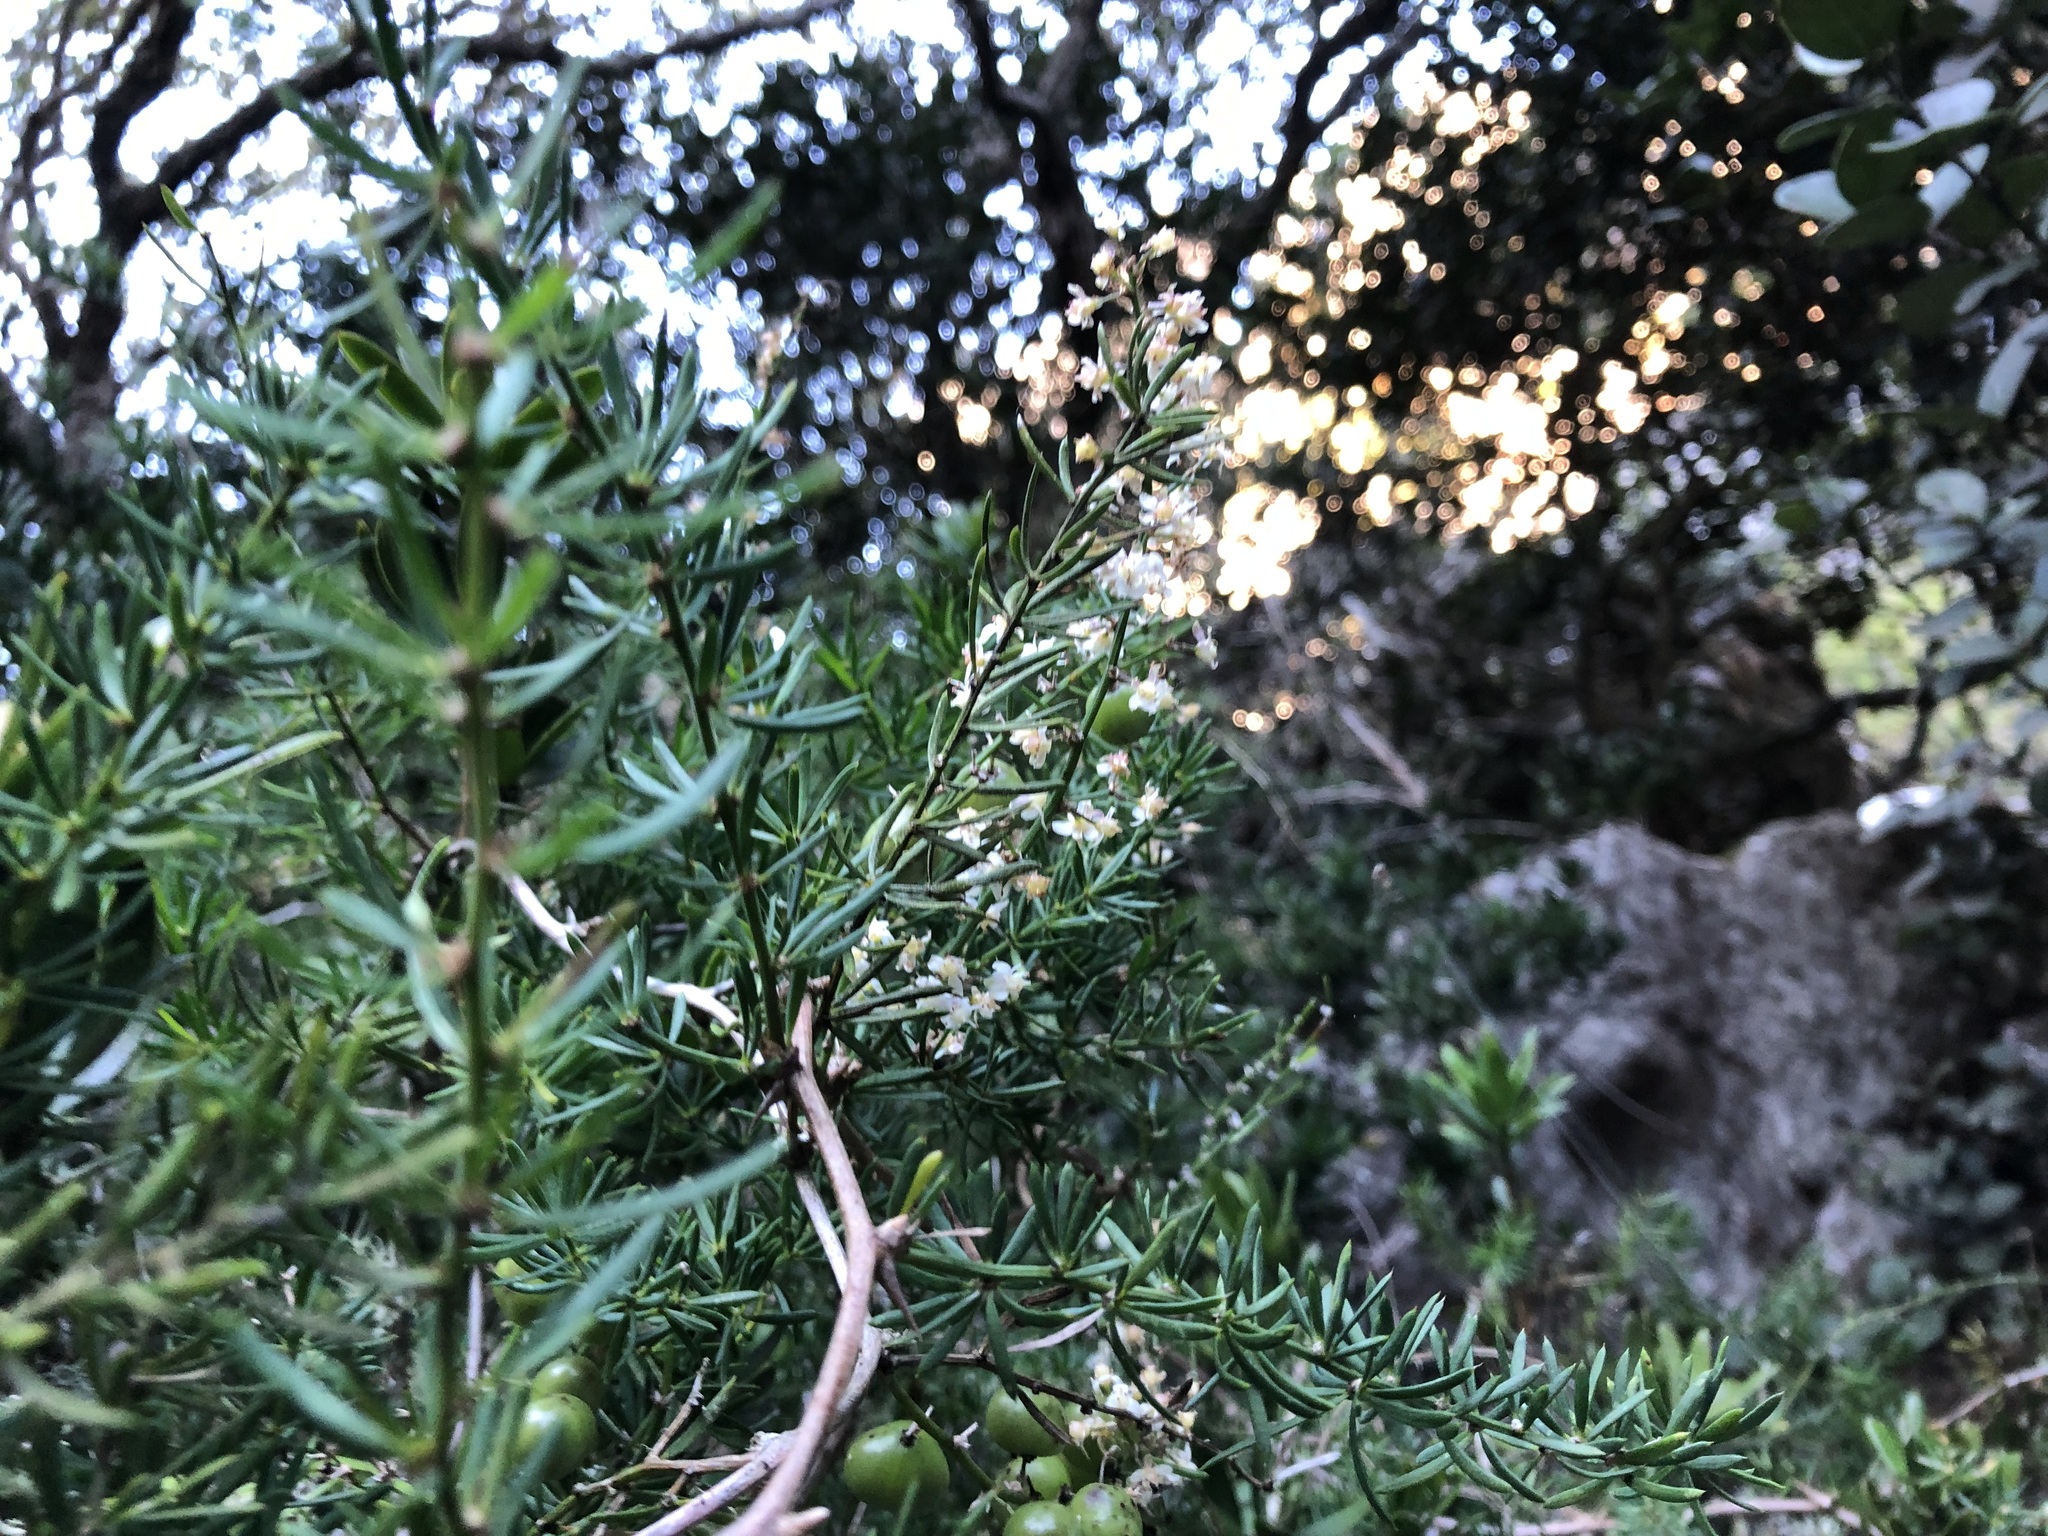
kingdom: Plantae
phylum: Tracheophyta
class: Liliopsida
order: Asparagales
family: Asparagaceae
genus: Asparagus
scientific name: Asparagus aethiopicus
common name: Sprenger's asparagus fern
